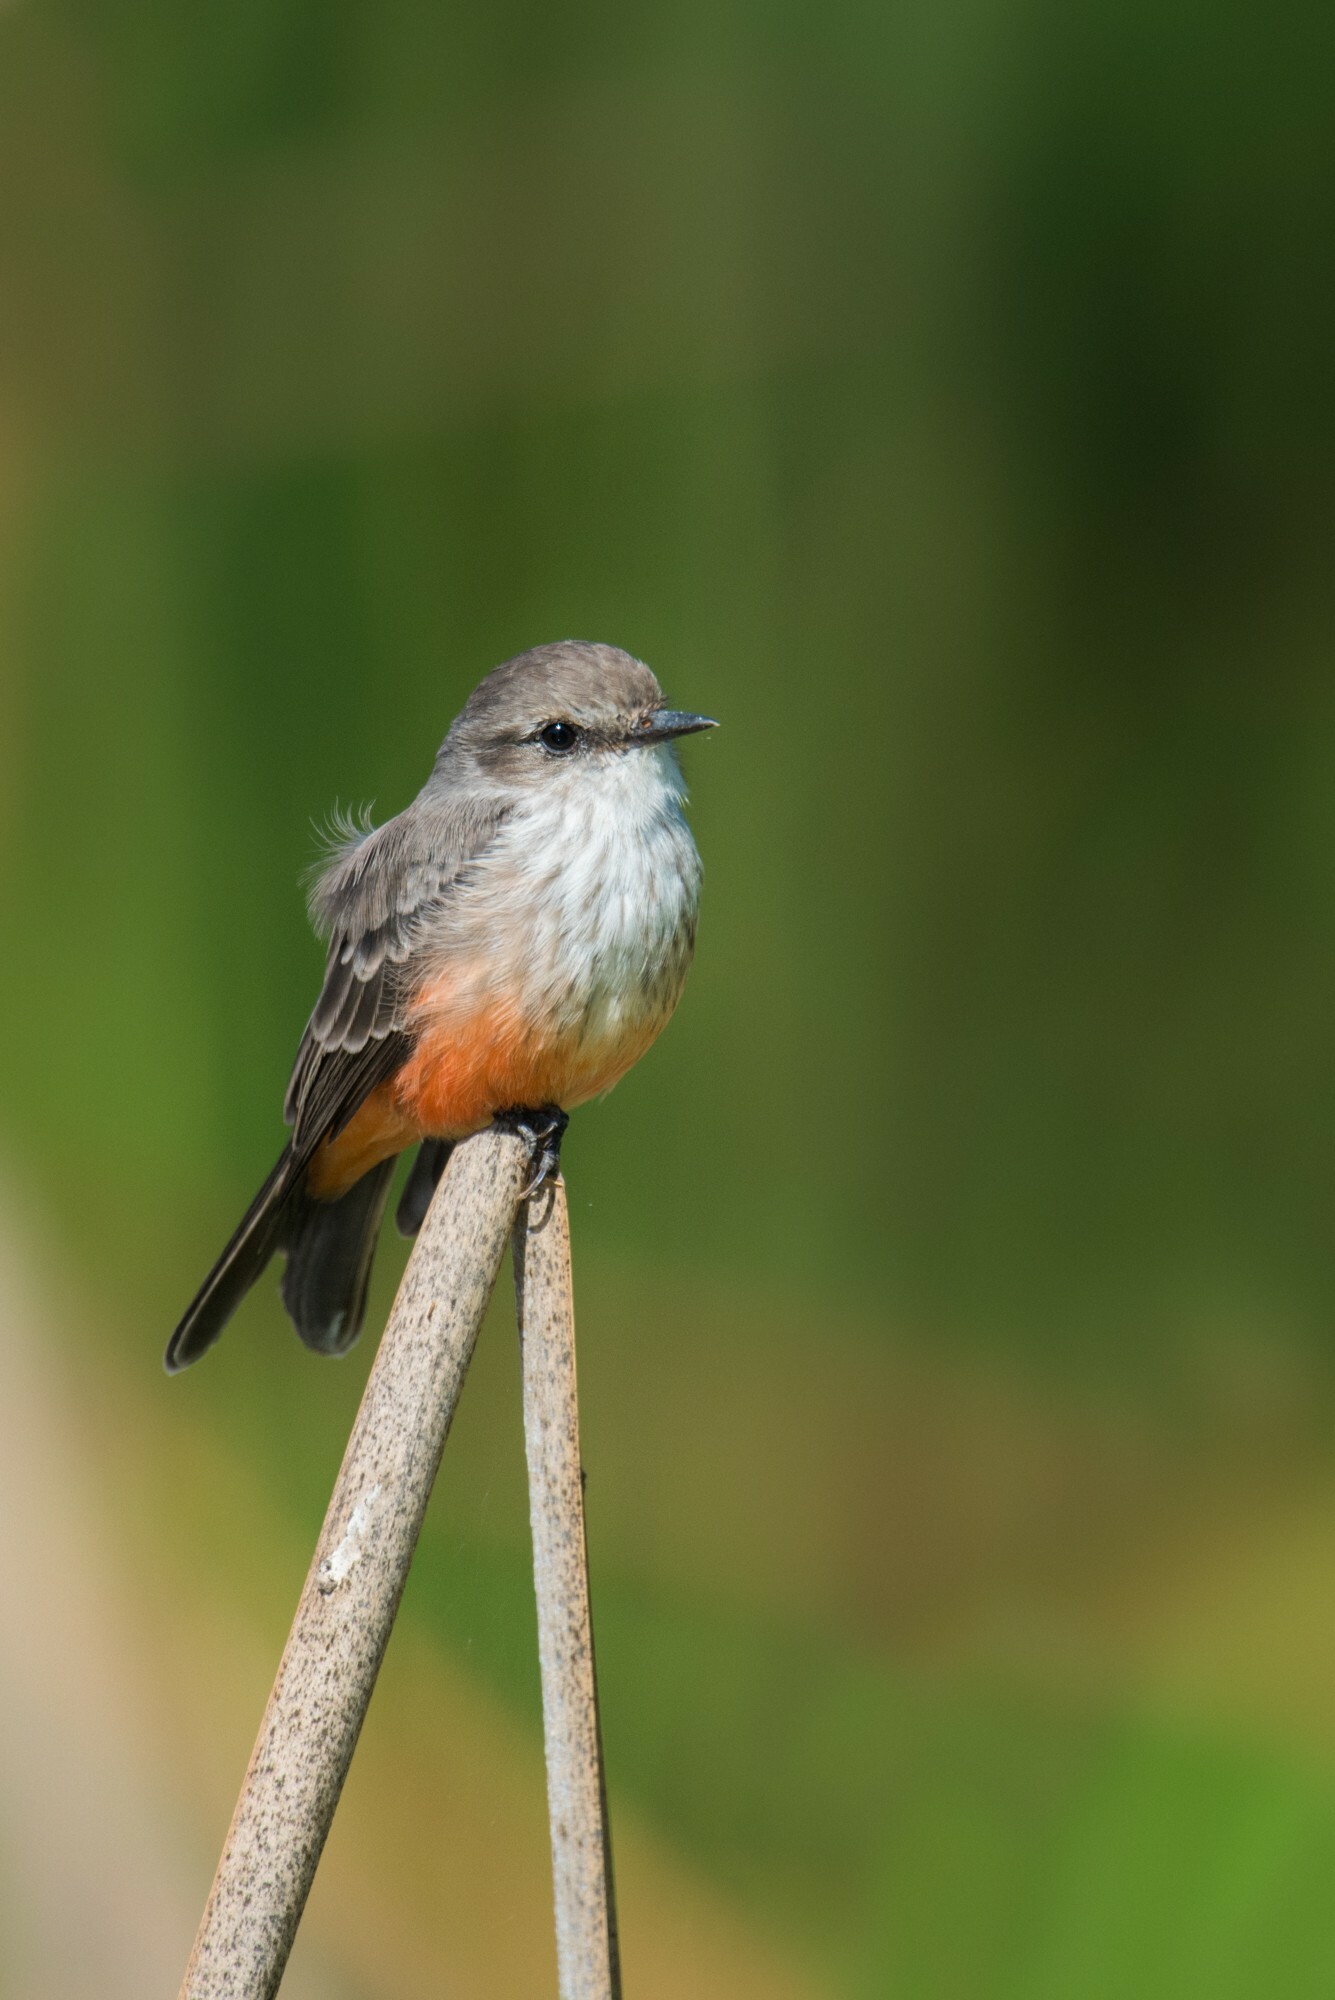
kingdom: Animalia
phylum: Chordata
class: Aves
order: Passeriformes
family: Tyrannidae
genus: Pyrocephalus
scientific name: Pyrocephalus rubinus
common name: Vermilion flycatcher
